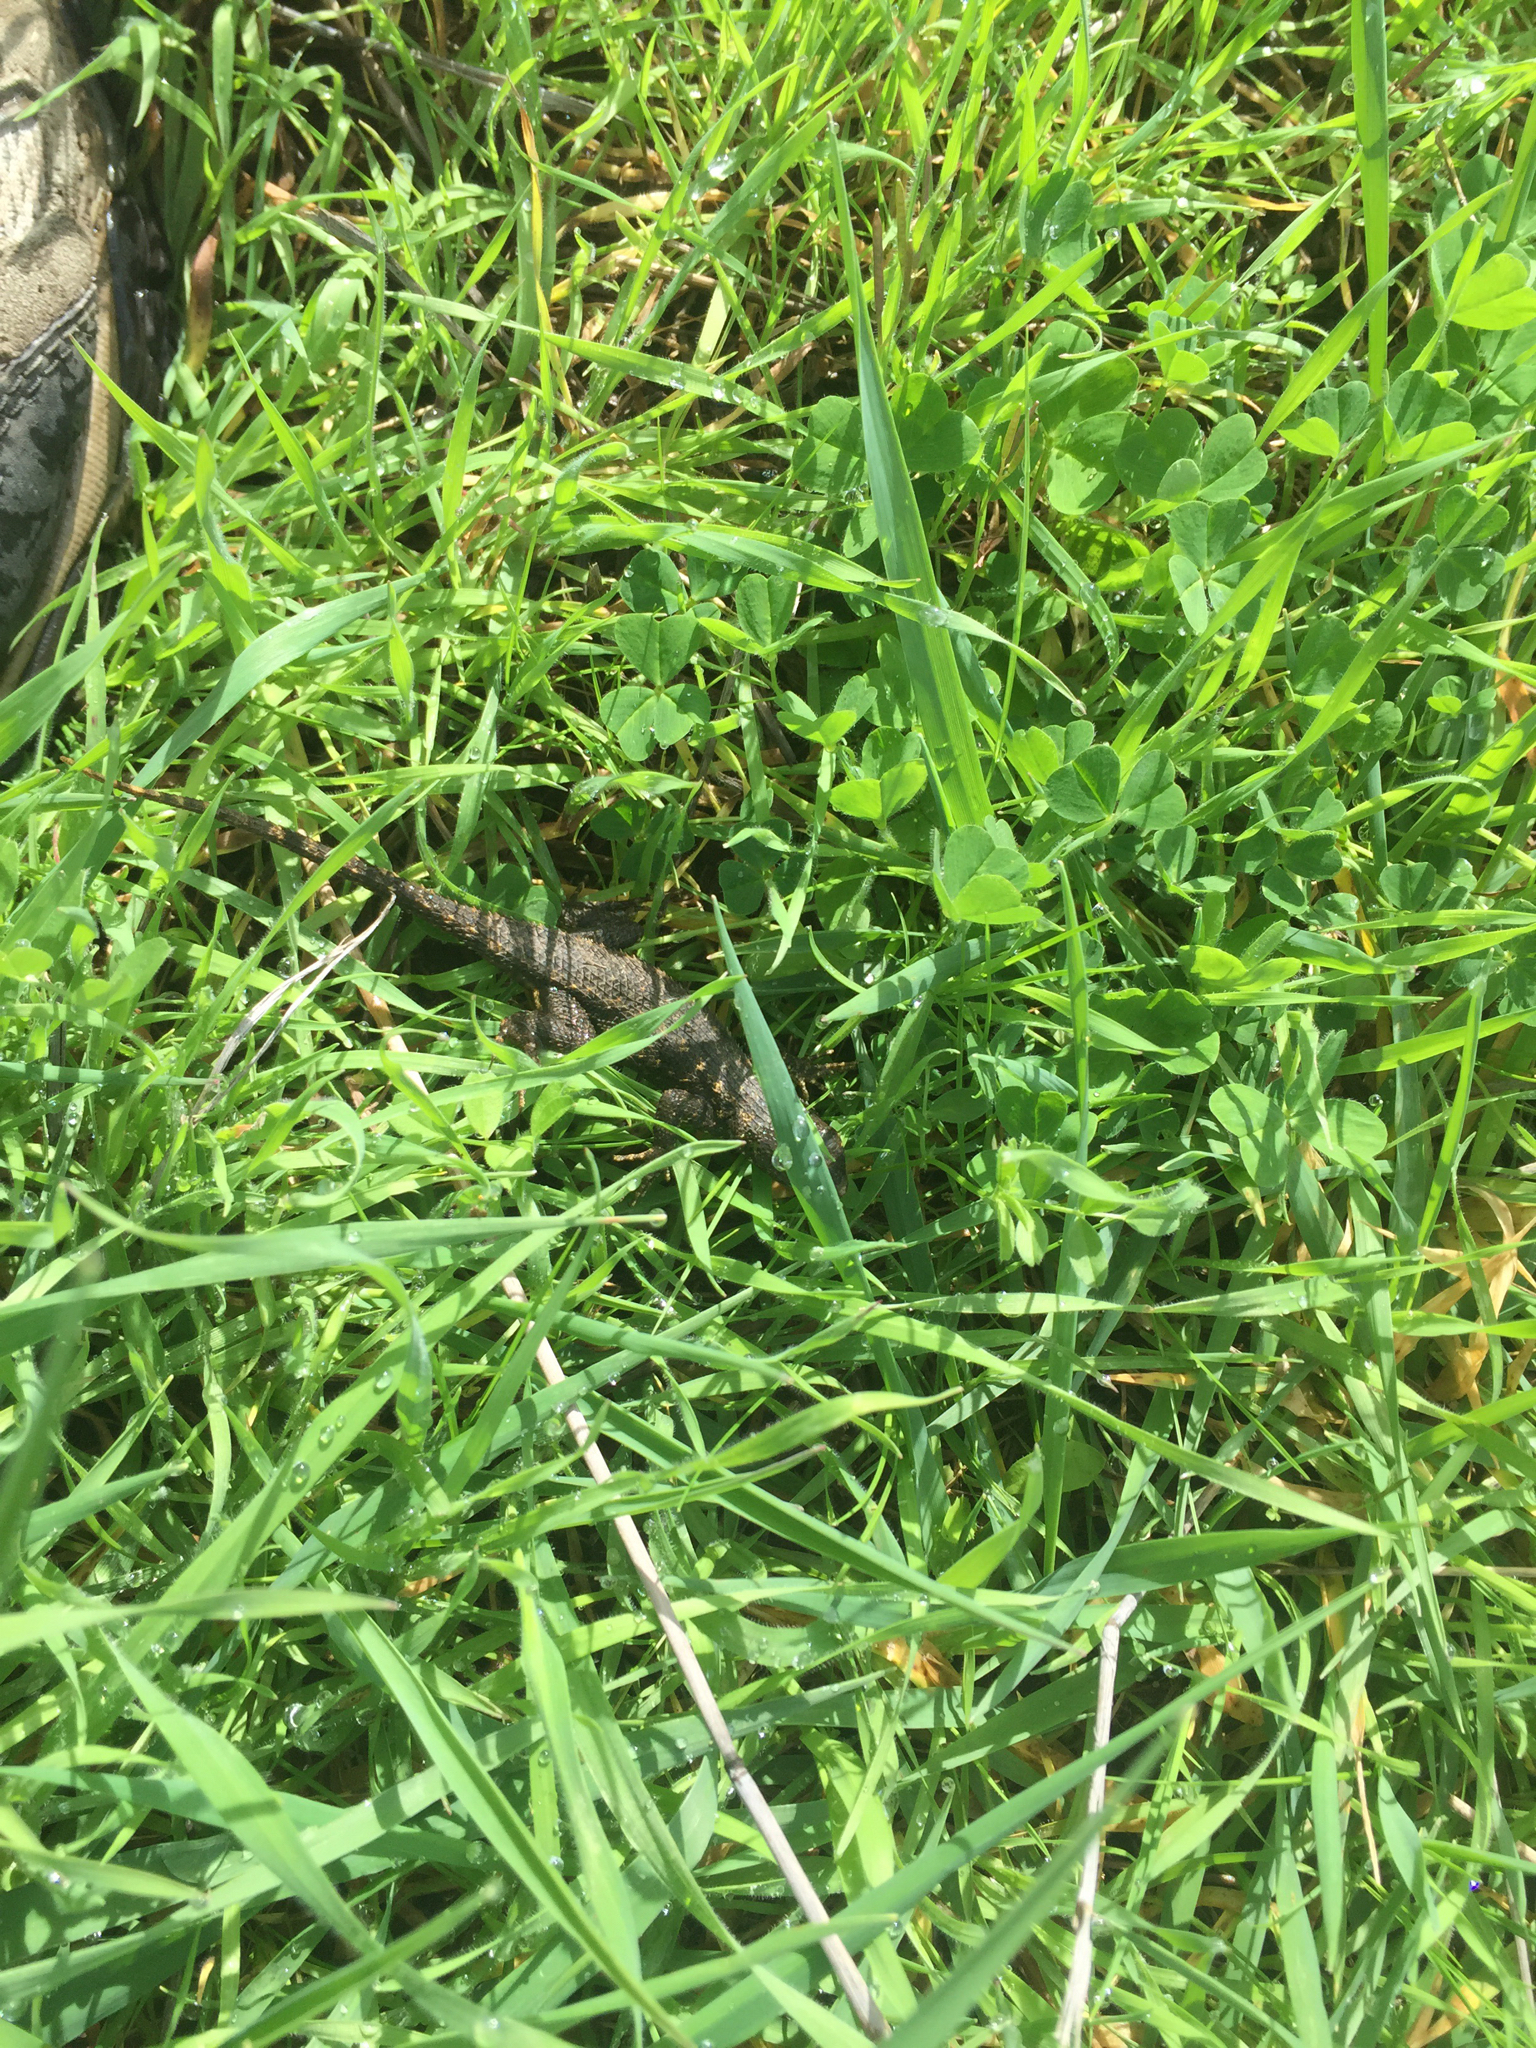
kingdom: Animalia
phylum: Chordata
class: Squamata
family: Phrynosomatidae
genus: Sceloporus
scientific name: Sceloporus occidentalis
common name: Western fence lizard
